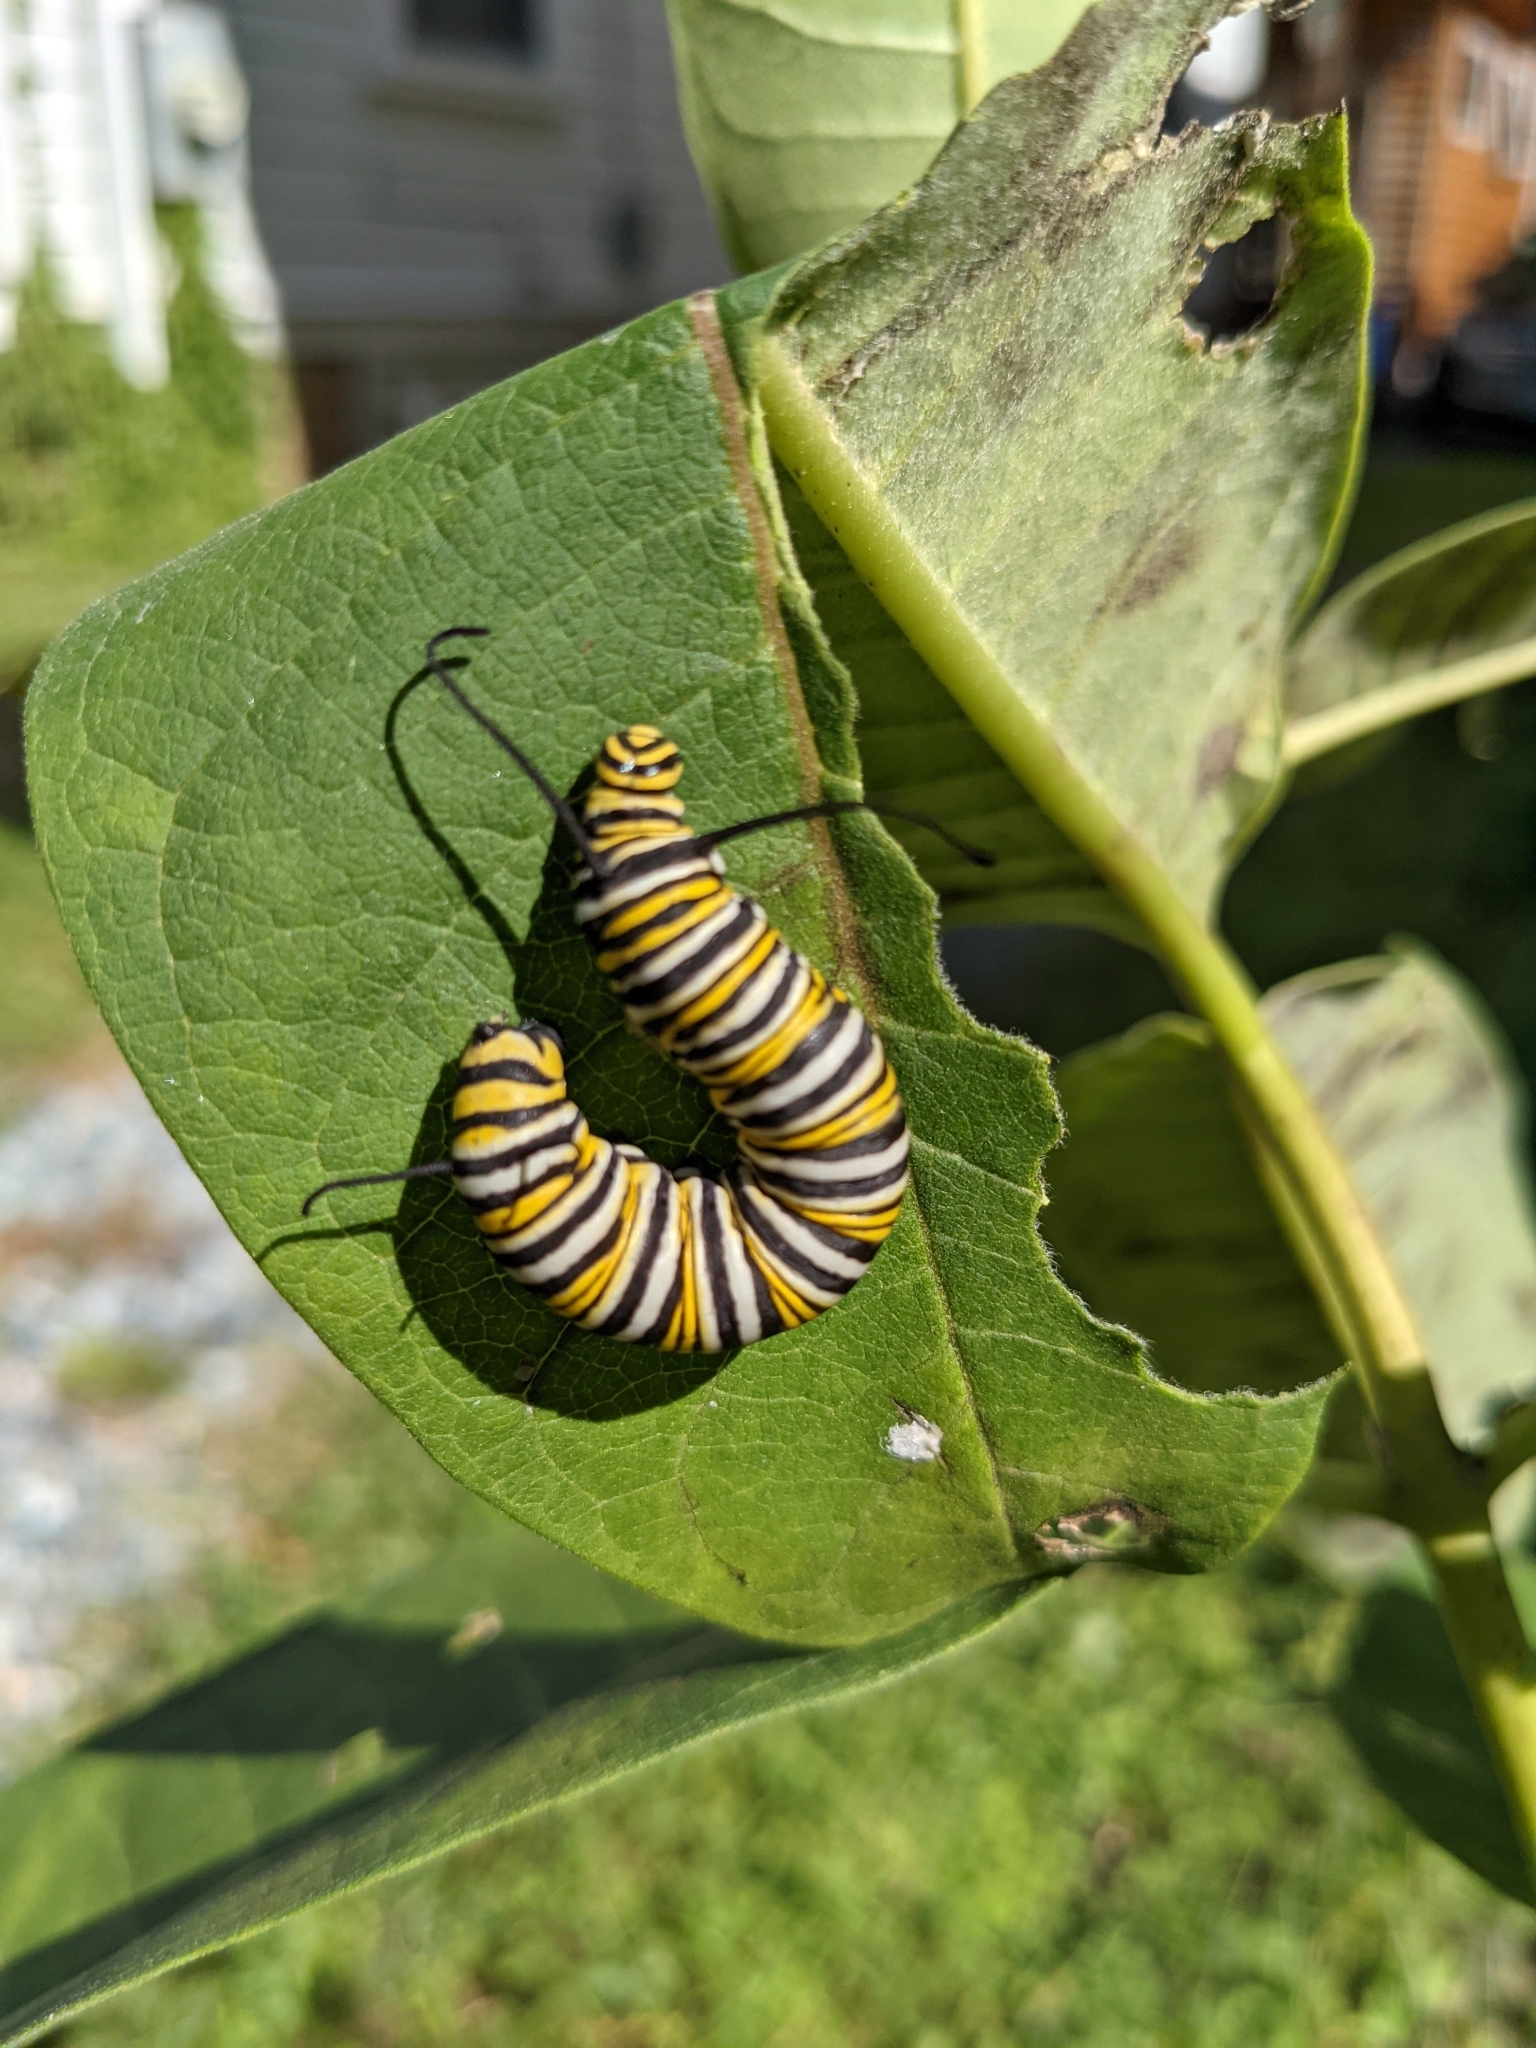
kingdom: Animalia
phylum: Arthropoda
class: Insecta
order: Lepidoptera
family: Nymphalidae
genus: Danaus
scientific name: Danaus plexippus
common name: Monarch
